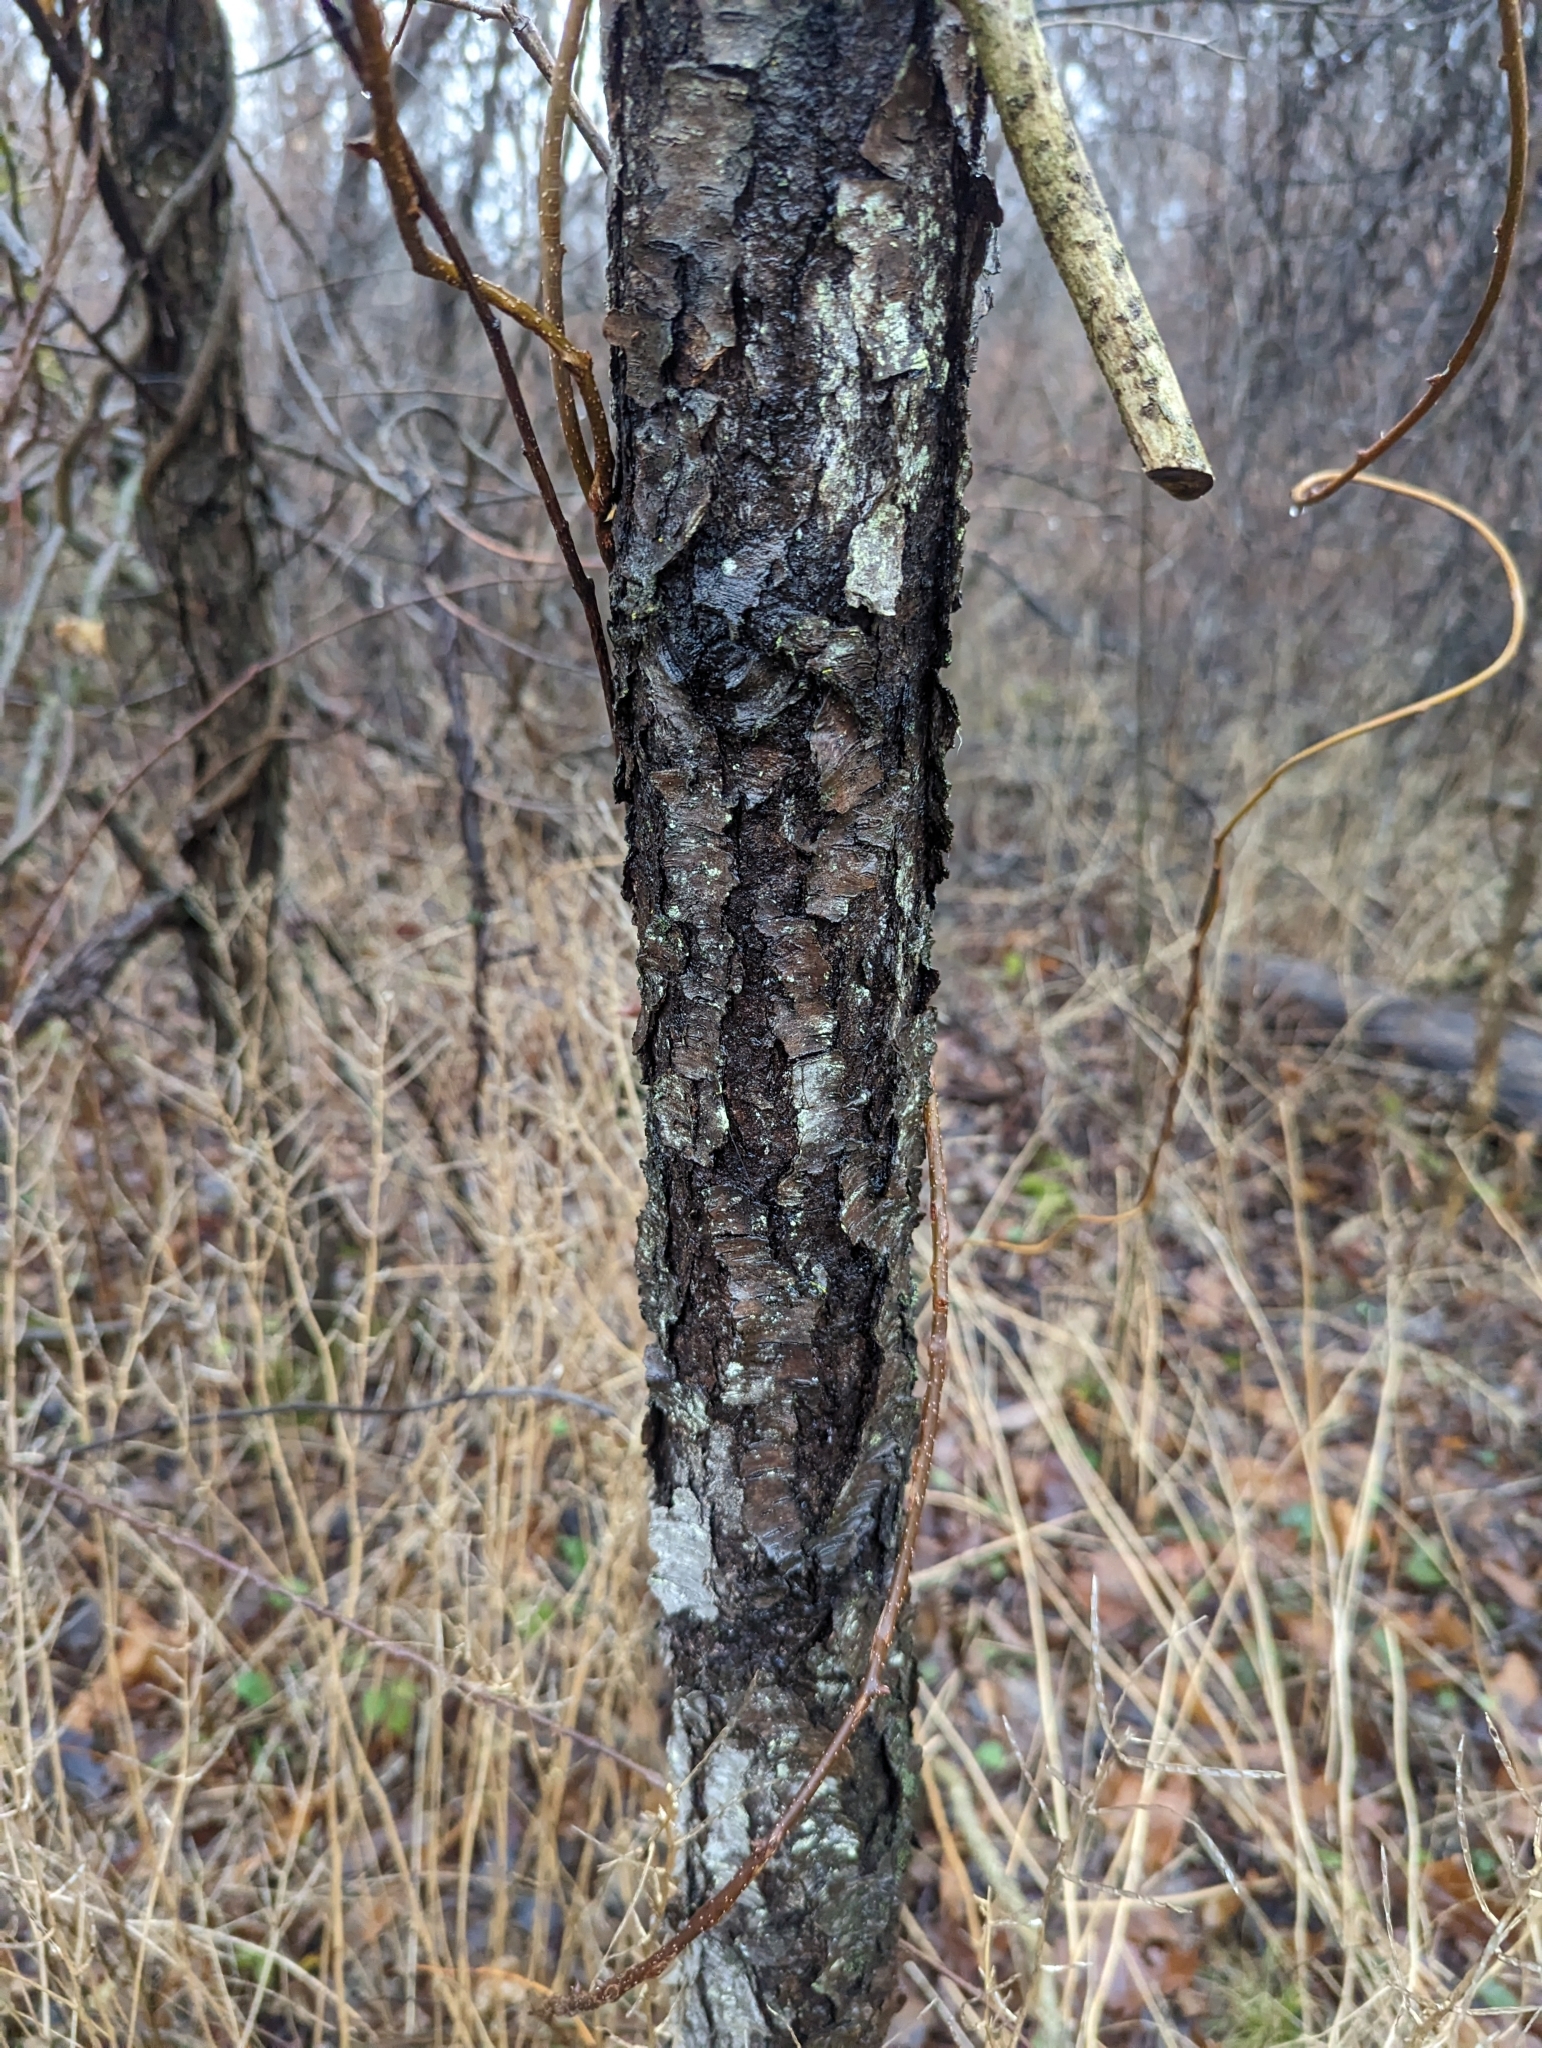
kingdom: Plantae
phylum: Tracheophyta
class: Magnoliopsida
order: Rosales
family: Rosaceae
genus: Prunus
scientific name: Prunus serotina
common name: Black cherry
